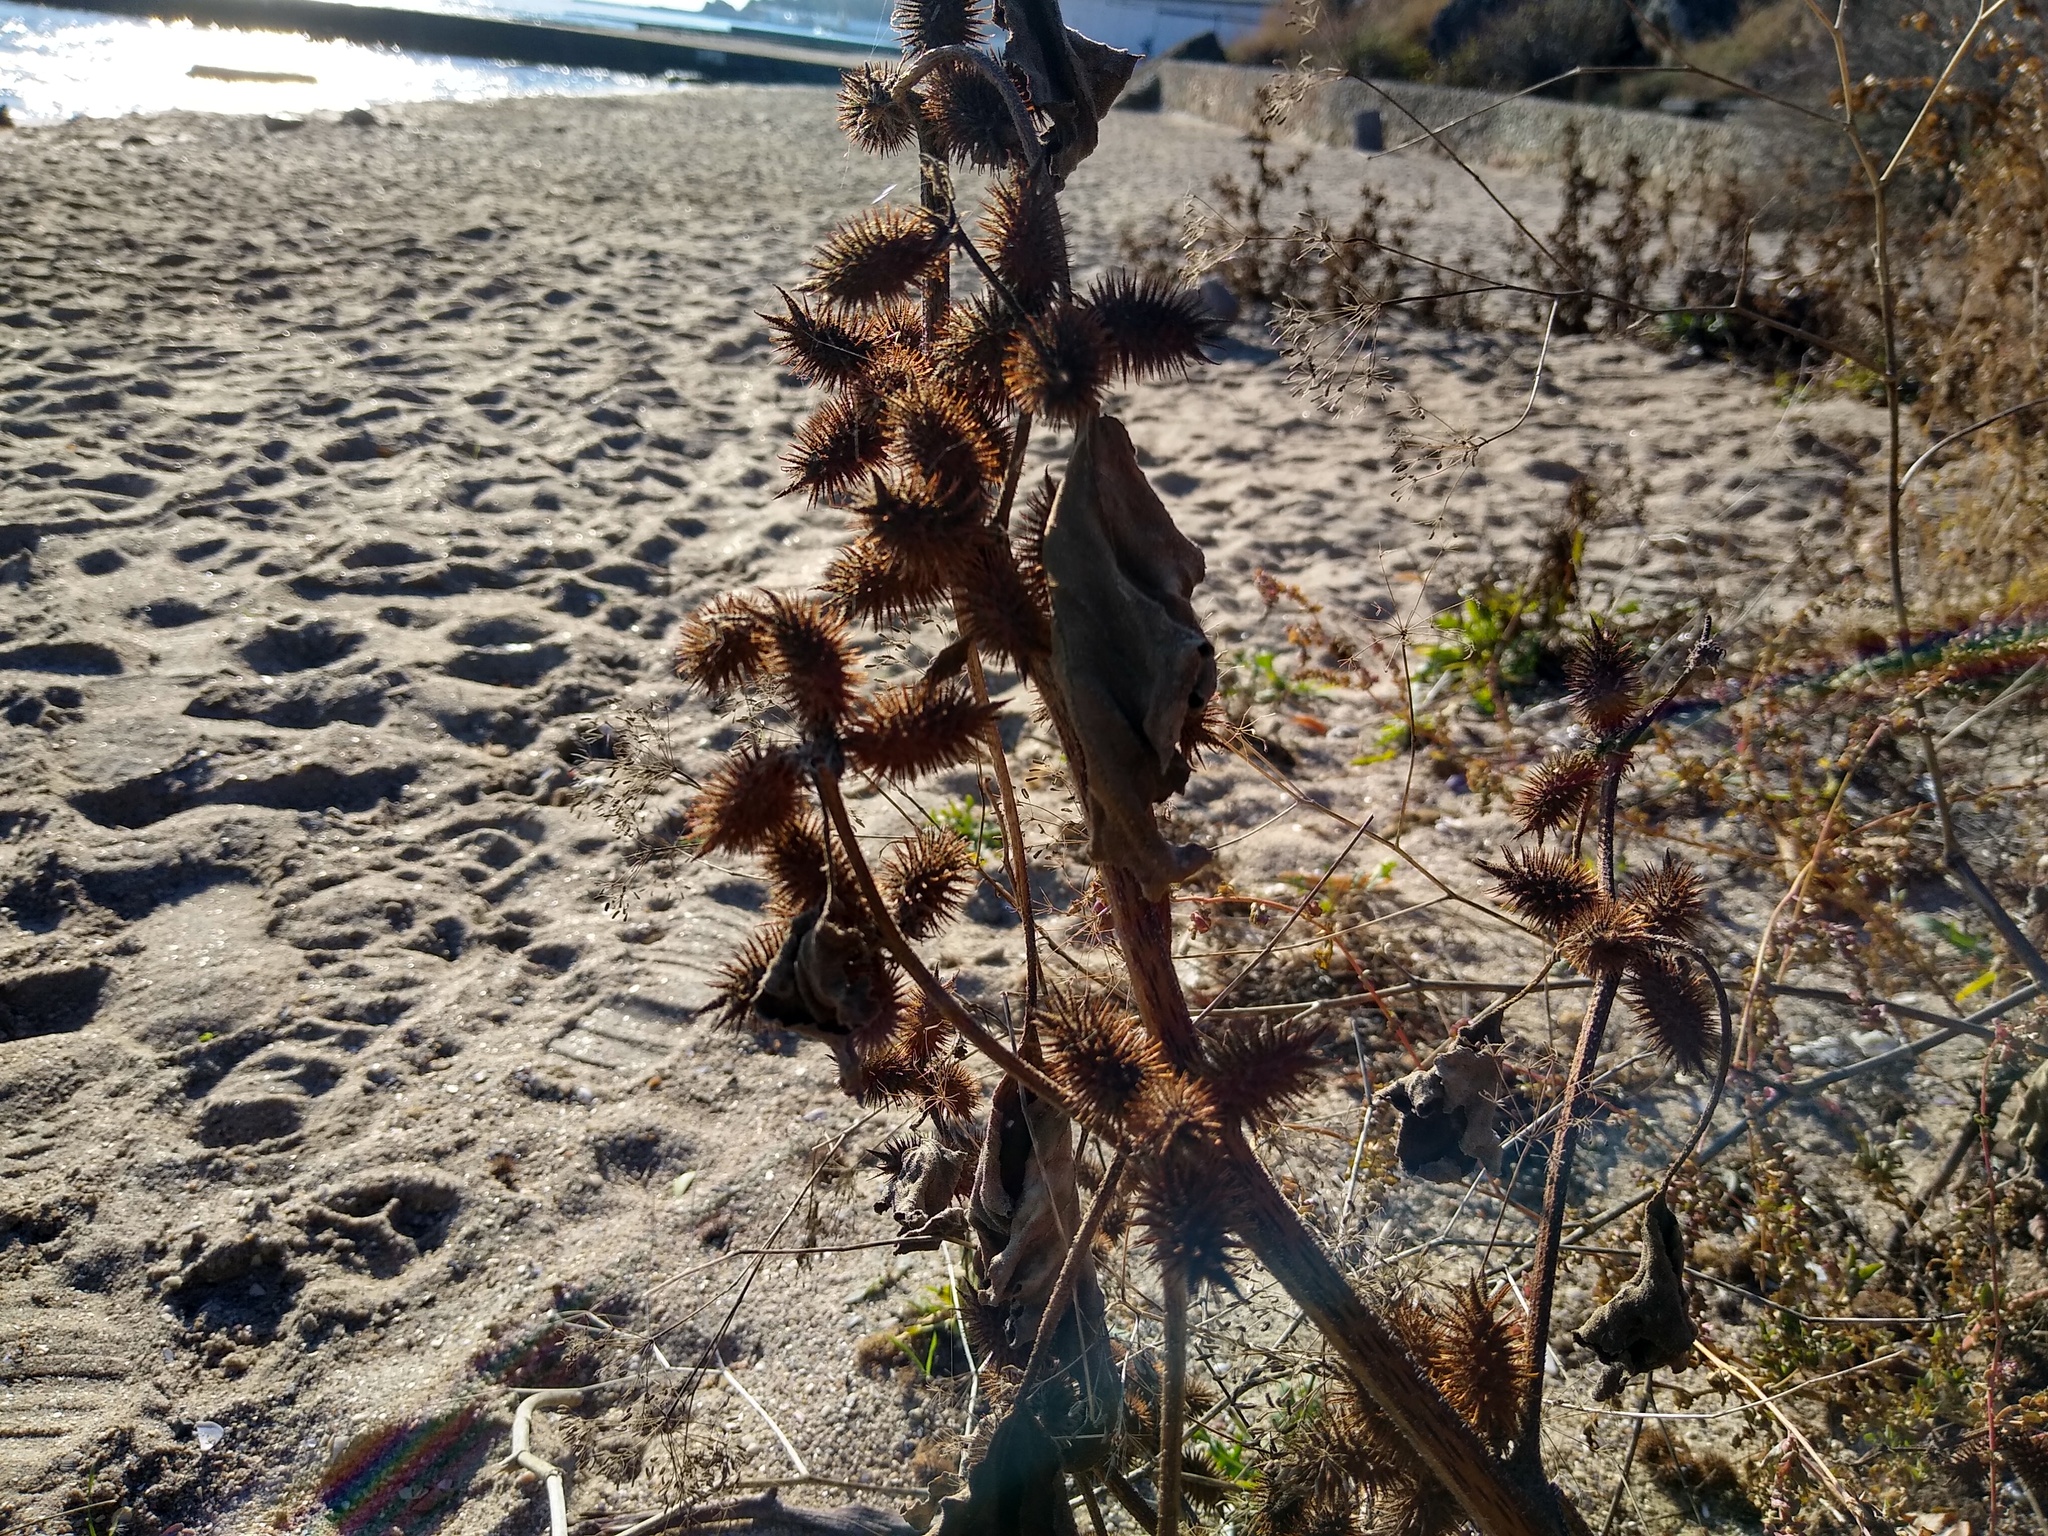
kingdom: Plantae
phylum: Tracheophyta
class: Magnoliopsida
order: Asterales
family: Asteraceae
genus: Xanthium
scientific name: Xanthium orientale
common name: Californian burr
